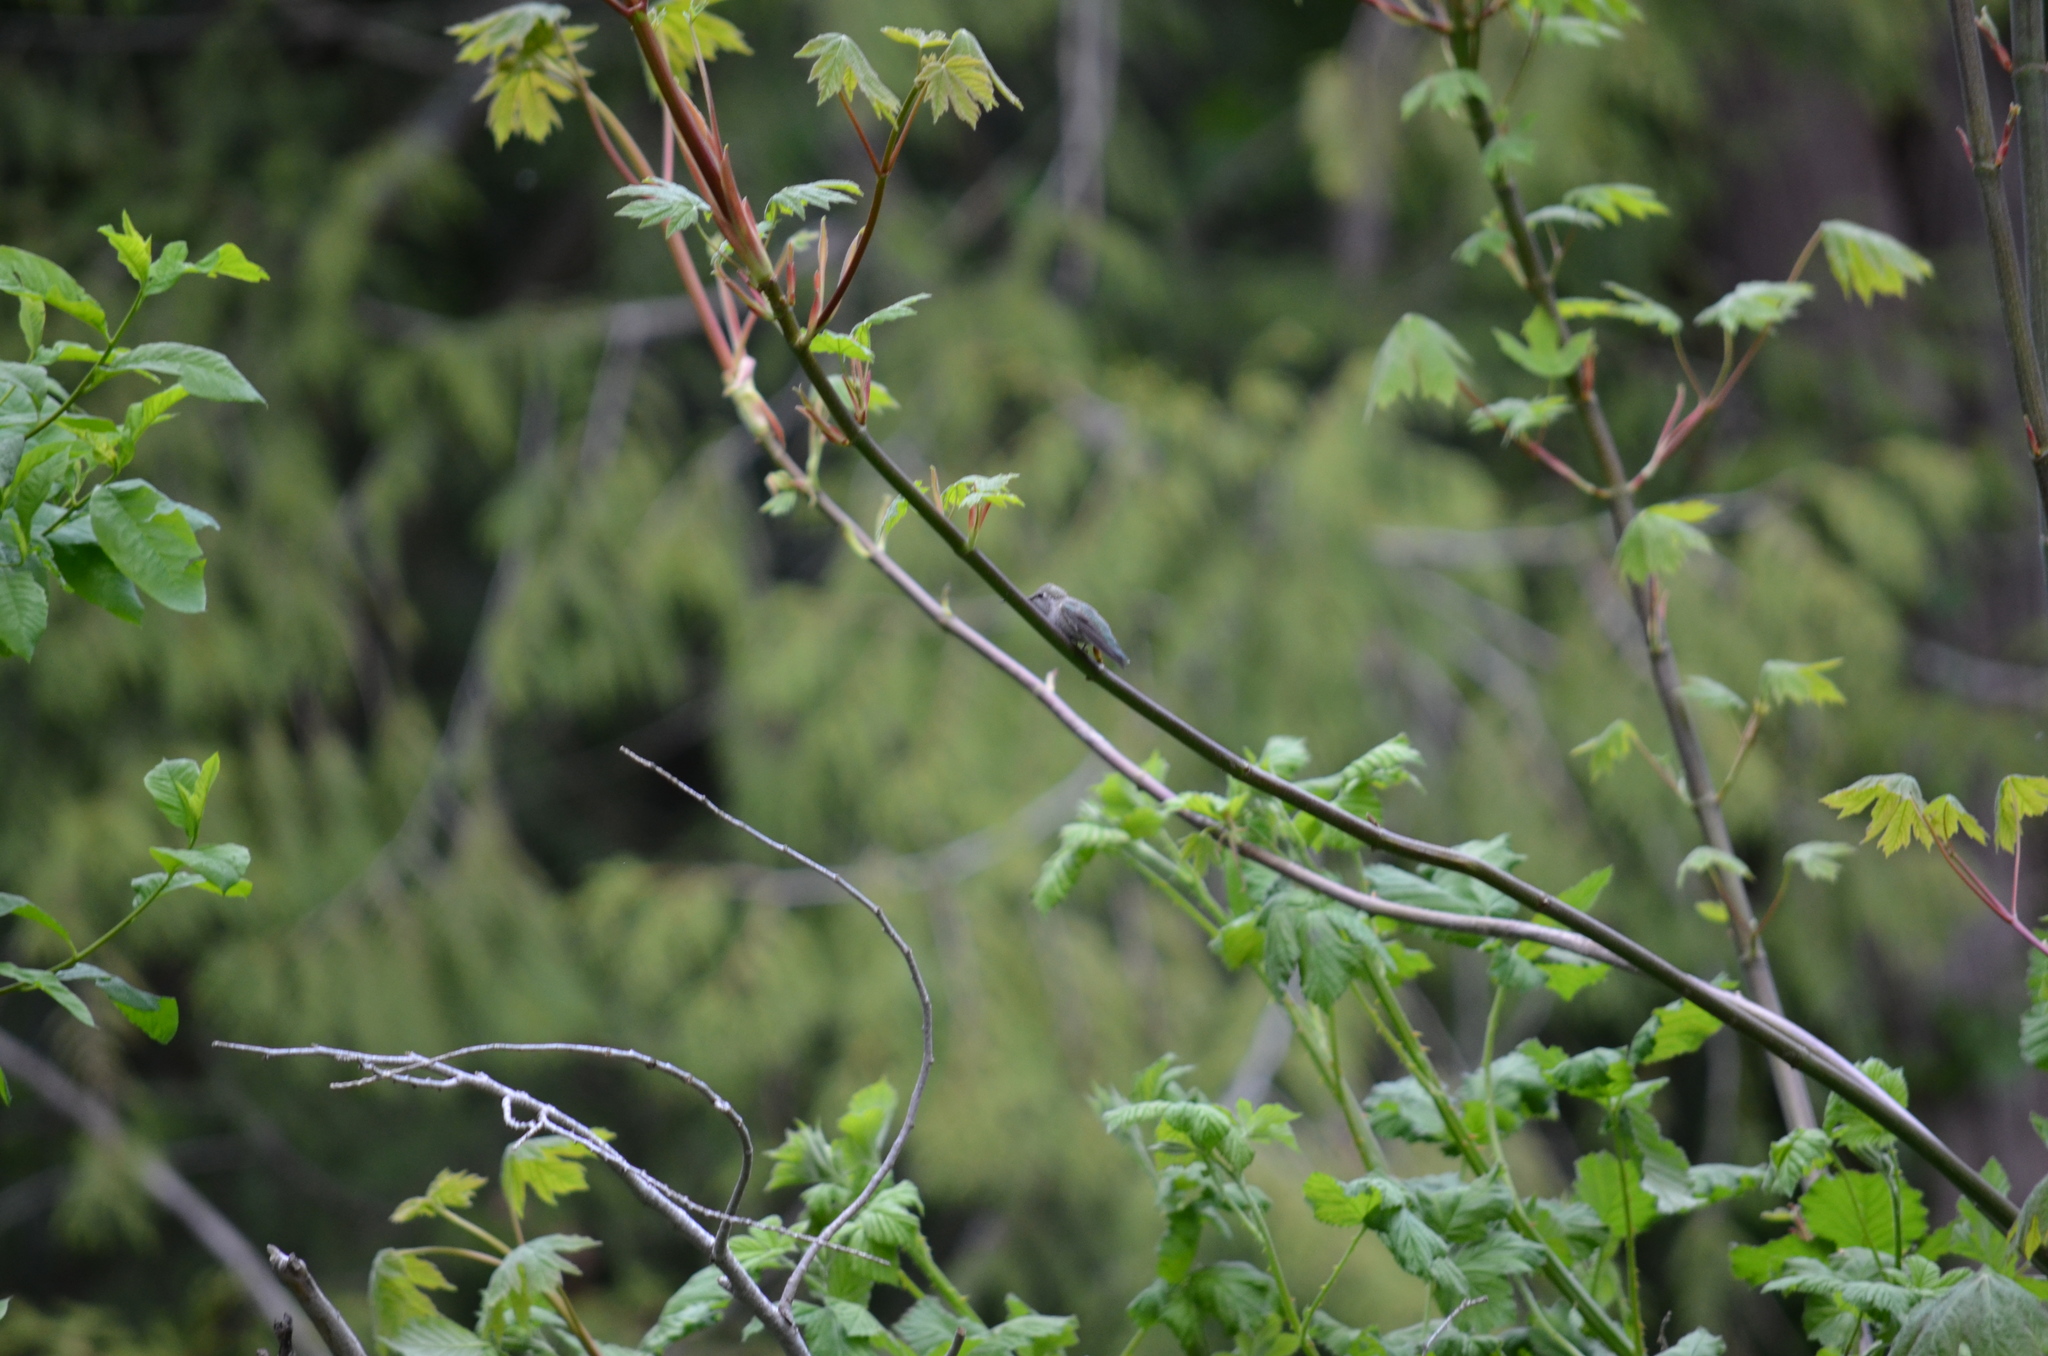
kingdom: Animalia
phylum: Chordata
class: Aves
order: Apodiformes
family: Trochilidae
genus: Calypte
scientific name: Calypte anna
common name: Anna's hummingbird
